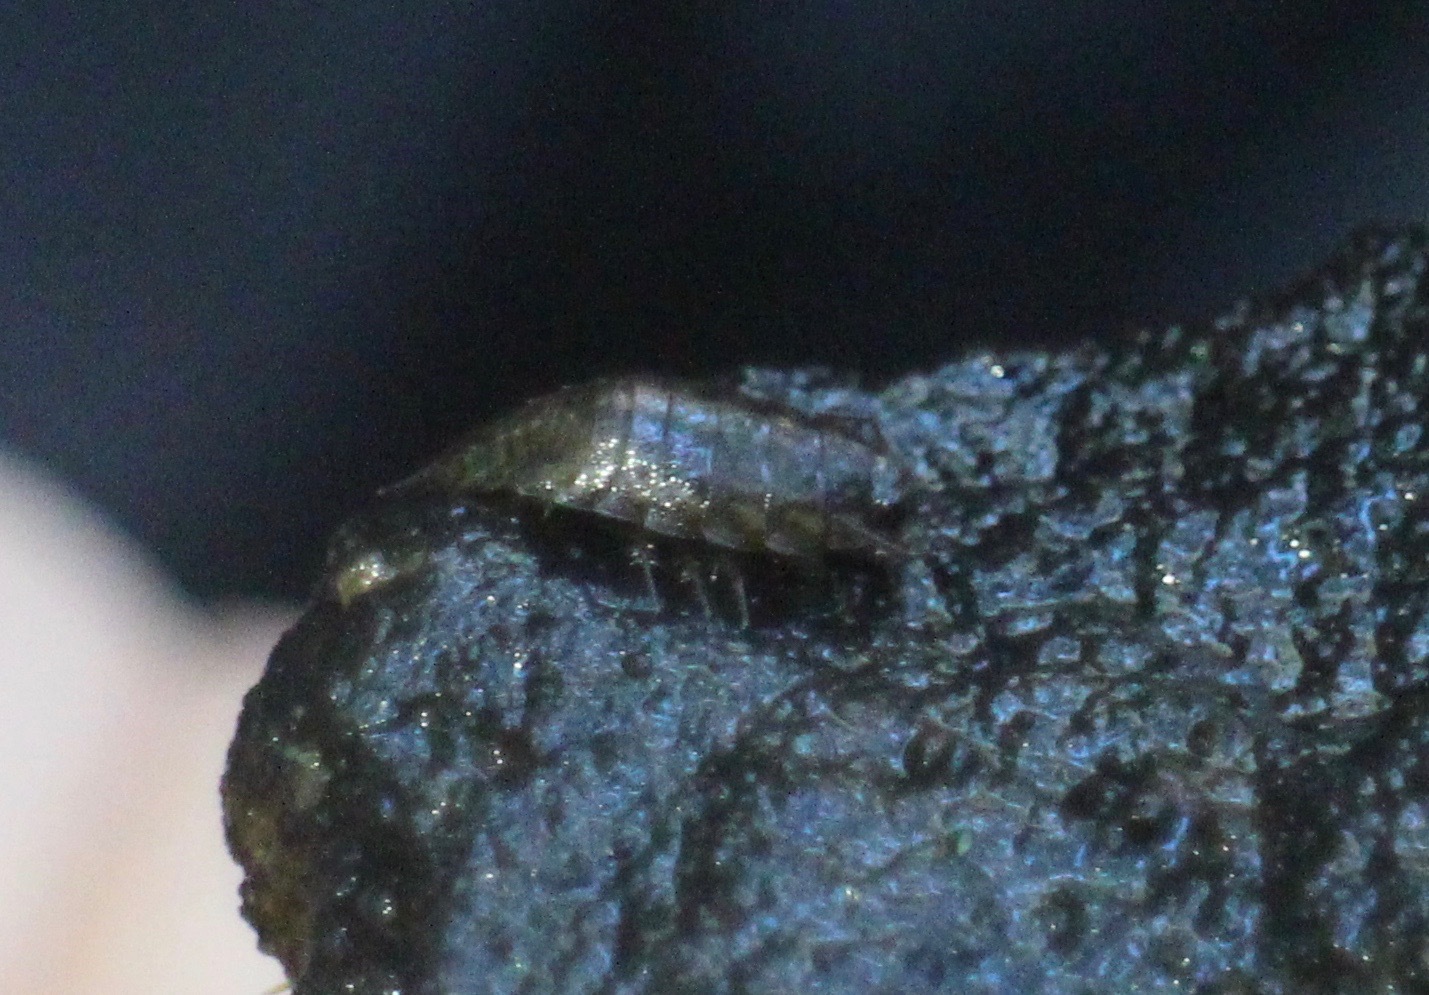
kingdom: Animalia
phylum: Arthropoda
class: Malacostraca
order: Isopoda
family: Ligiidae
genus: Ligidium
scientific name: Ligidium latum
